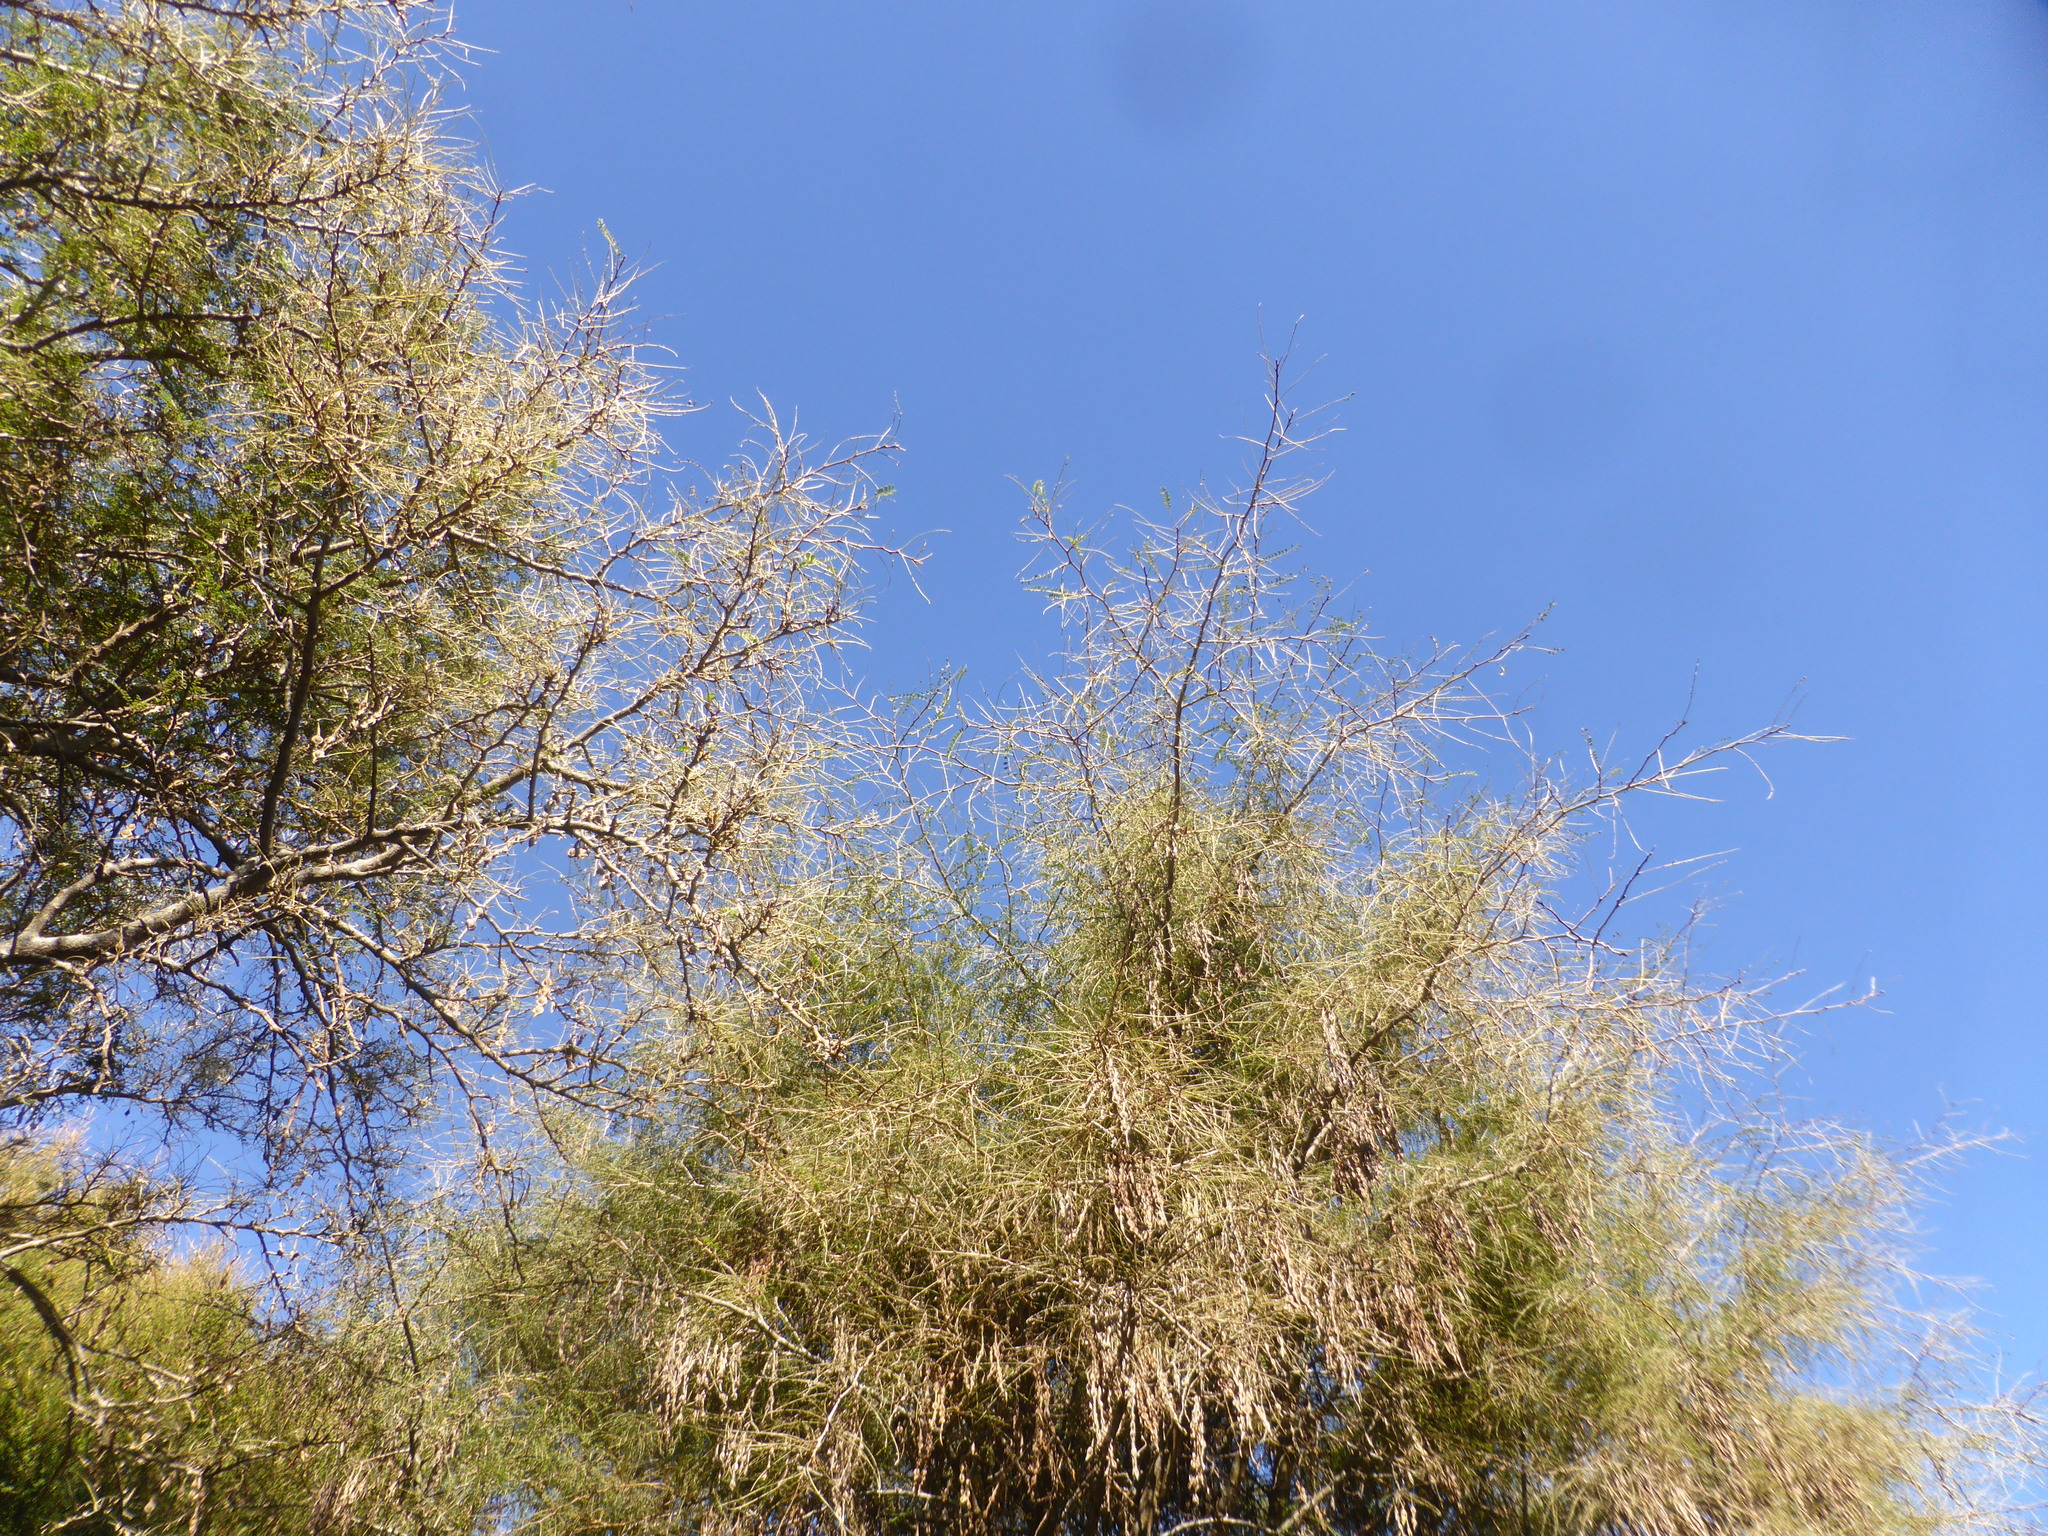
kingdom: Plantae
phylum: Tracheophyta
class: Magnoliopsida
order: Fabales
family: Fabaceae
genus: Sophora
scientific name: Sophora microphylla
